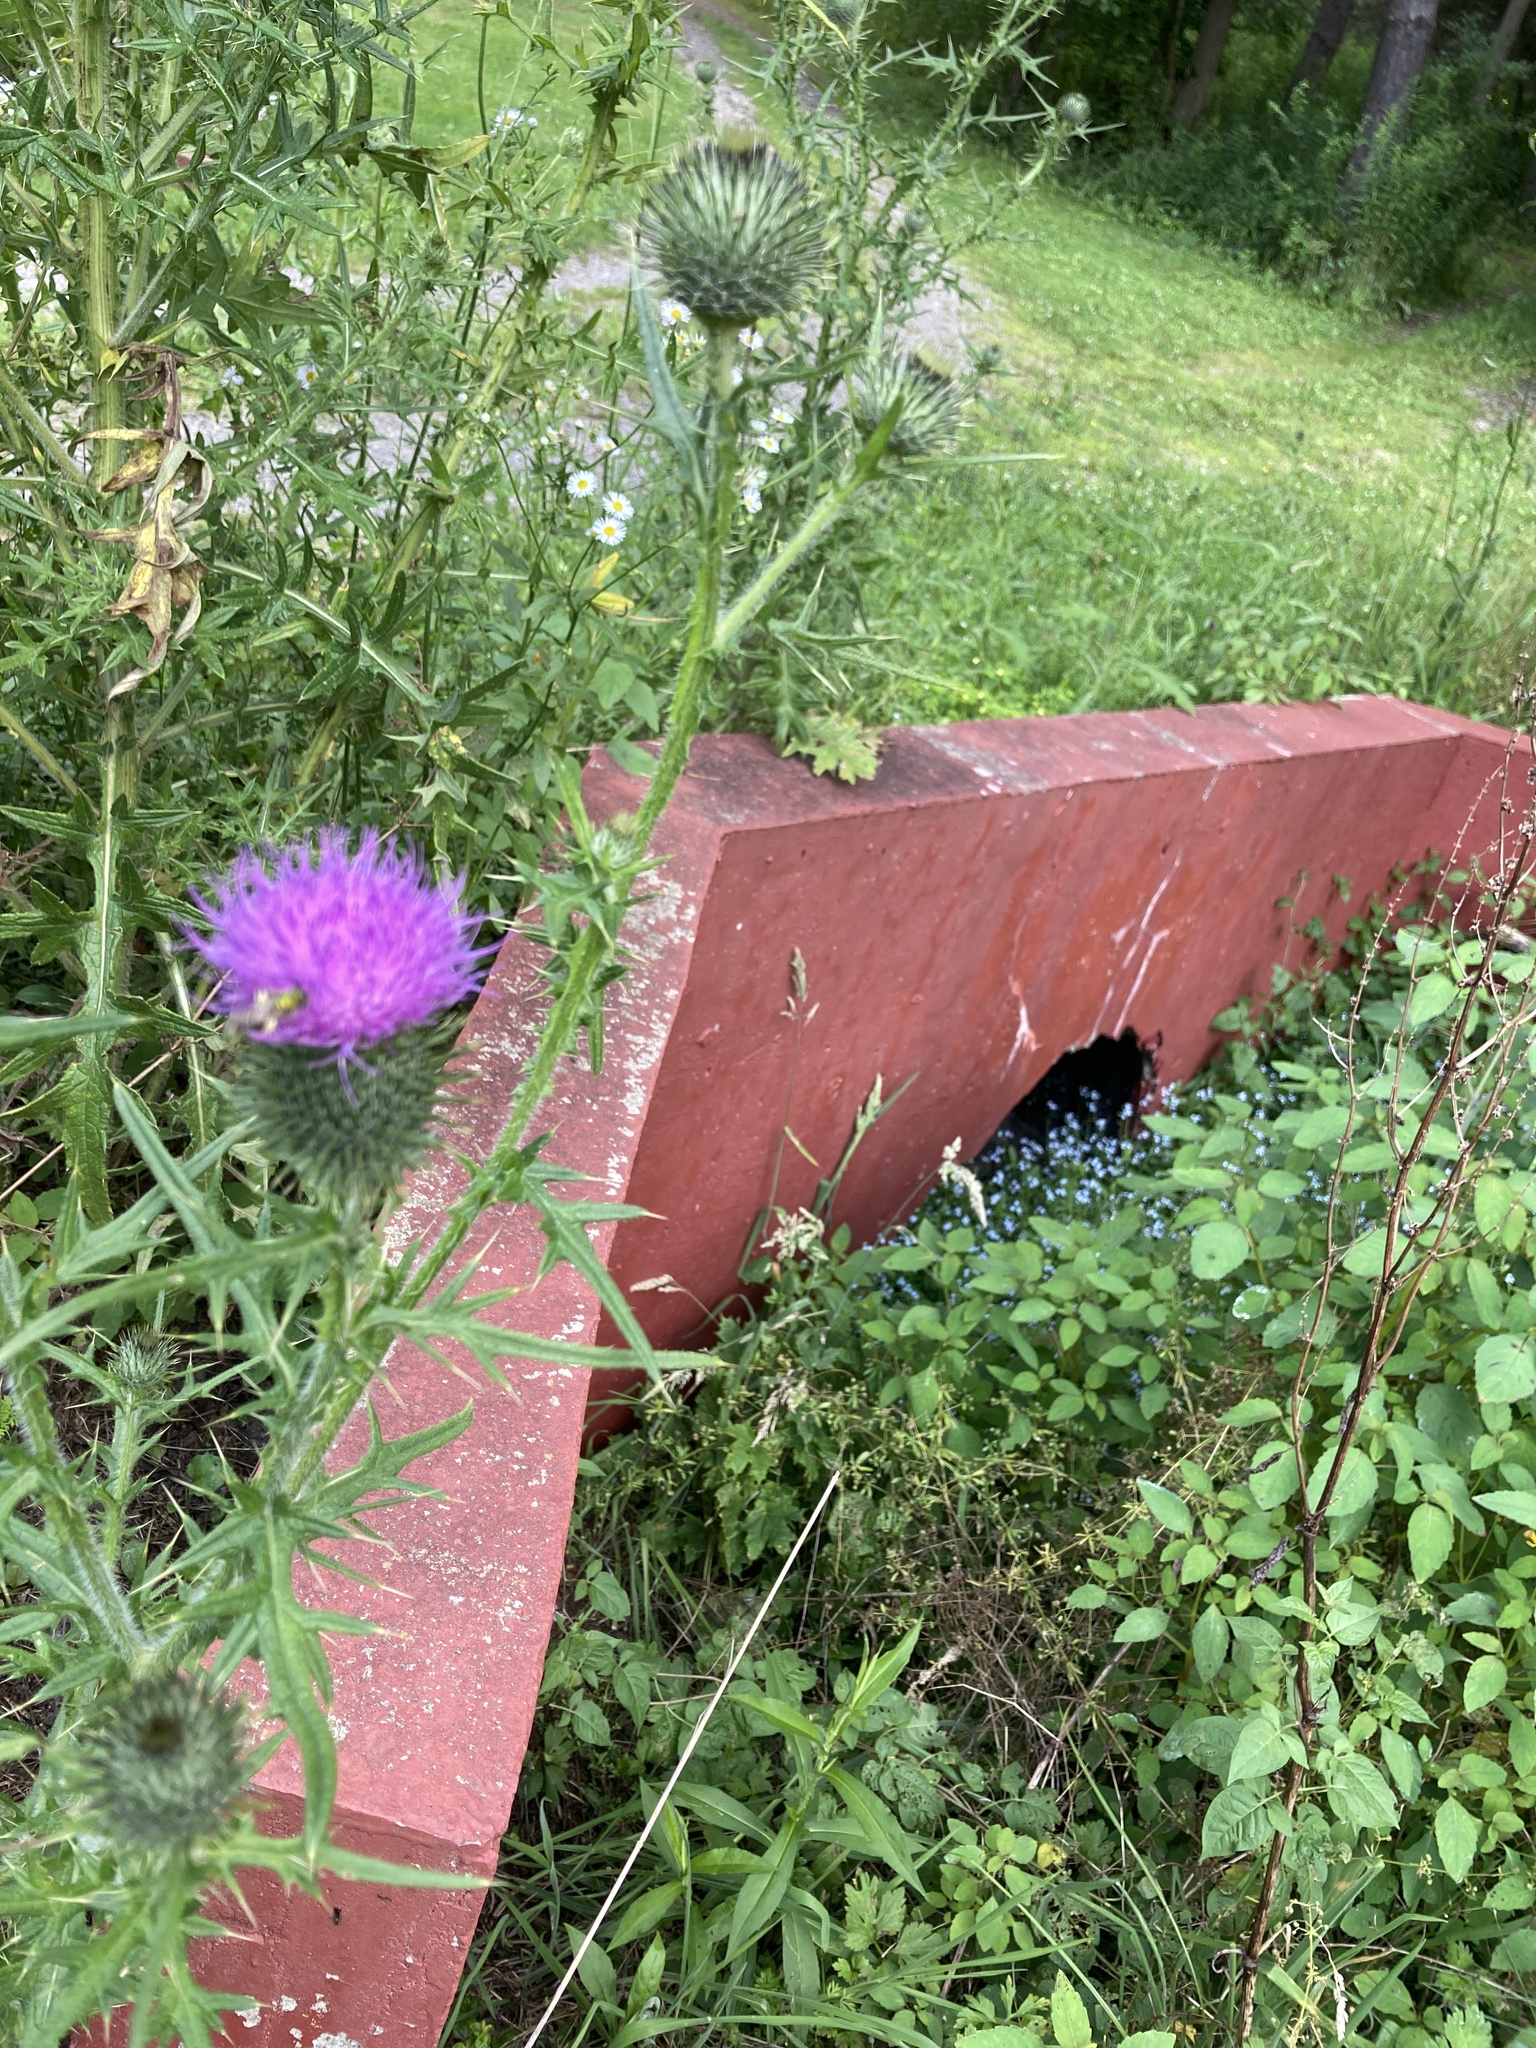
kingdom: Plantae
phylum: Tracheophyta
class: Magnoliopsida
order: Asterales
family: Asteraceae
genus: Cirsium
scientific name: Cirsium vulgare
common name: Bull thistle
